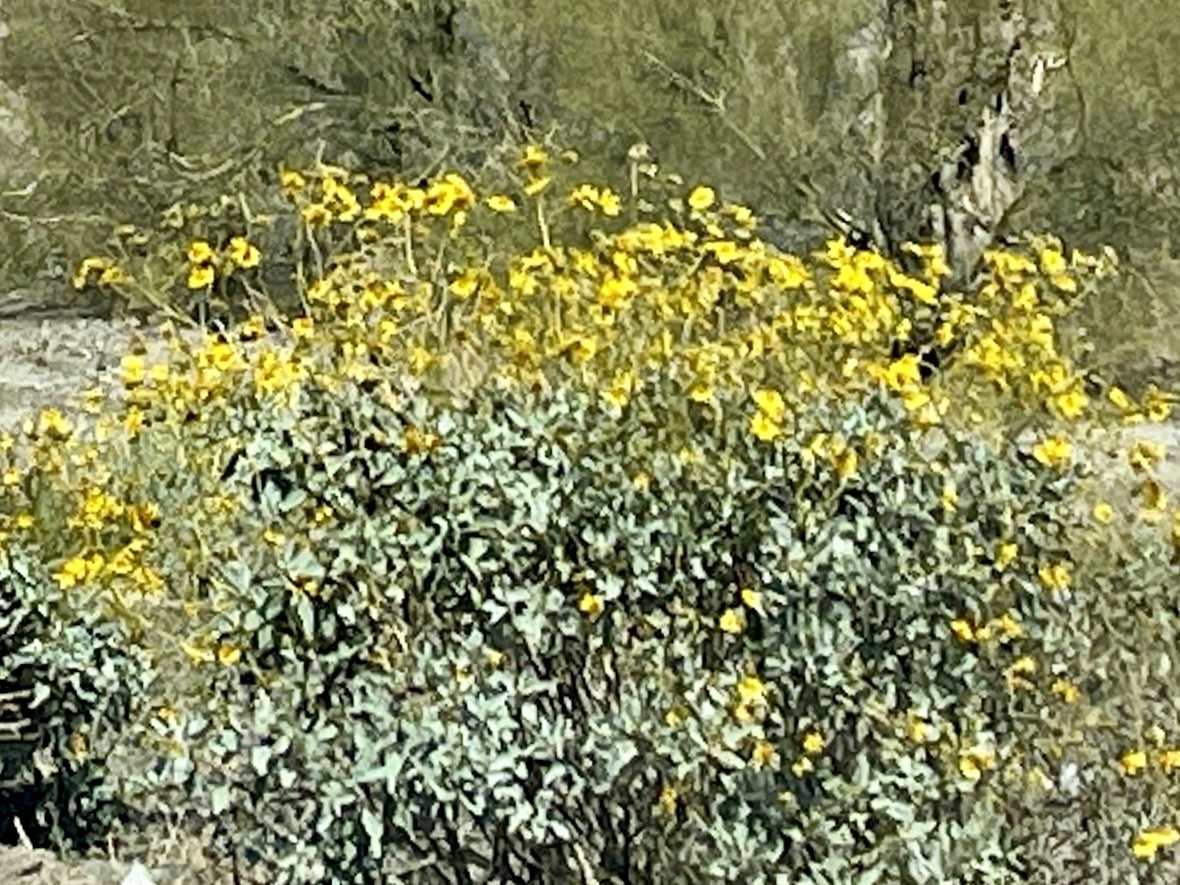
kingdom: Plantae
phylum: Tracheophyta
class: Magnoliopsida
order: Asterales
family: Asteraceae
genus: Encelia
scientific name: Encelia farinosa
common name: Brittlebush
